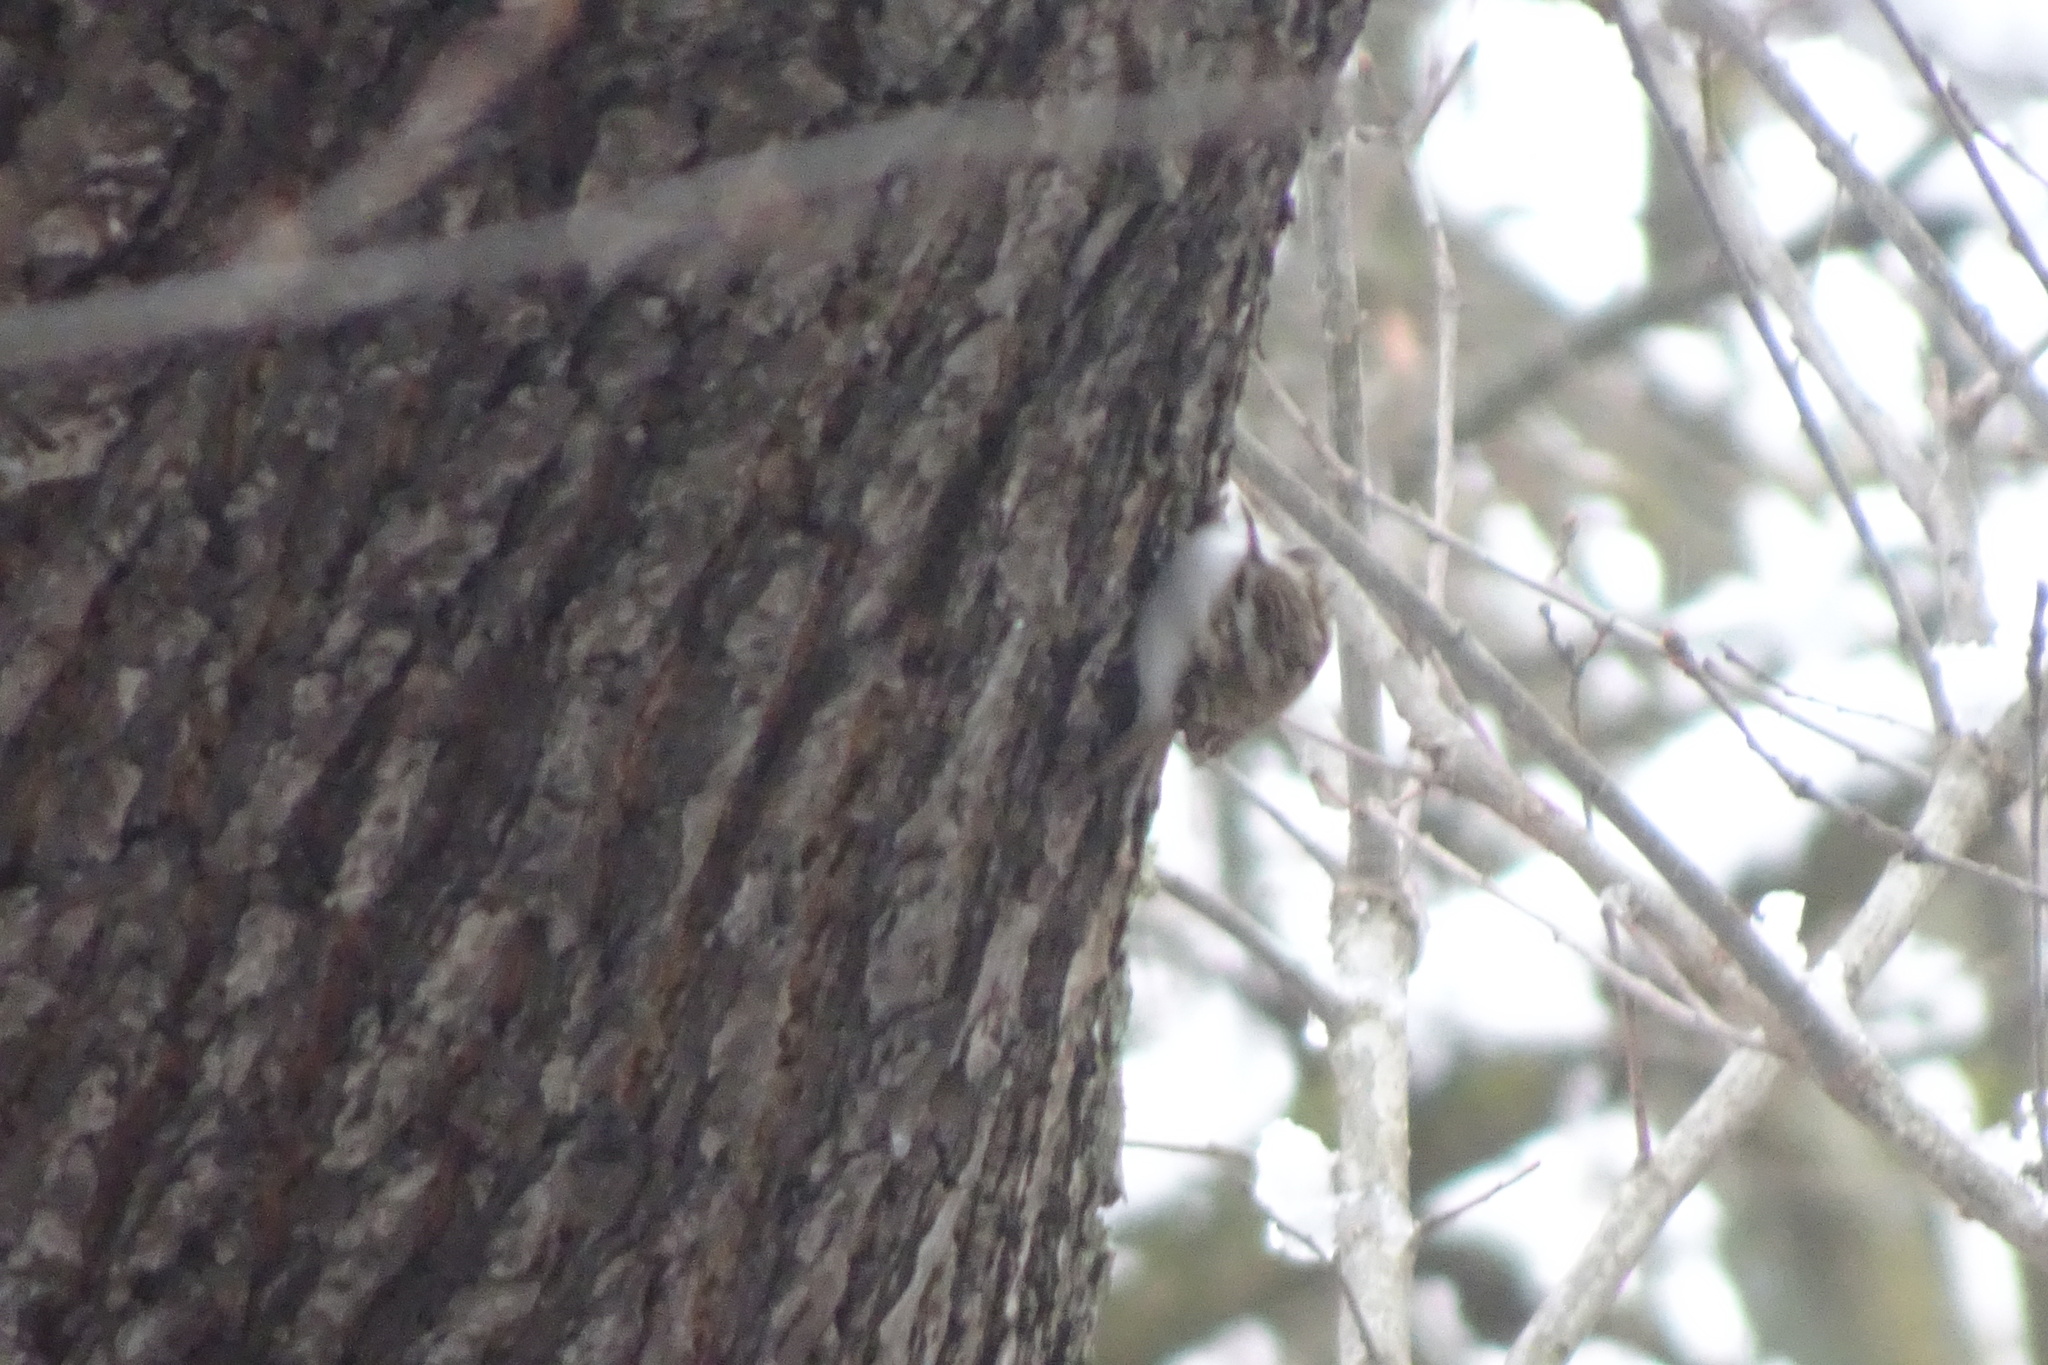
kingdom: Animalia
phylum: Chordata
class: Aves
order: Passeriformes
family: Certhiidae
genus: Certhia
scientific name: Certhia familiaris
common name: Eurasian treecreeper
